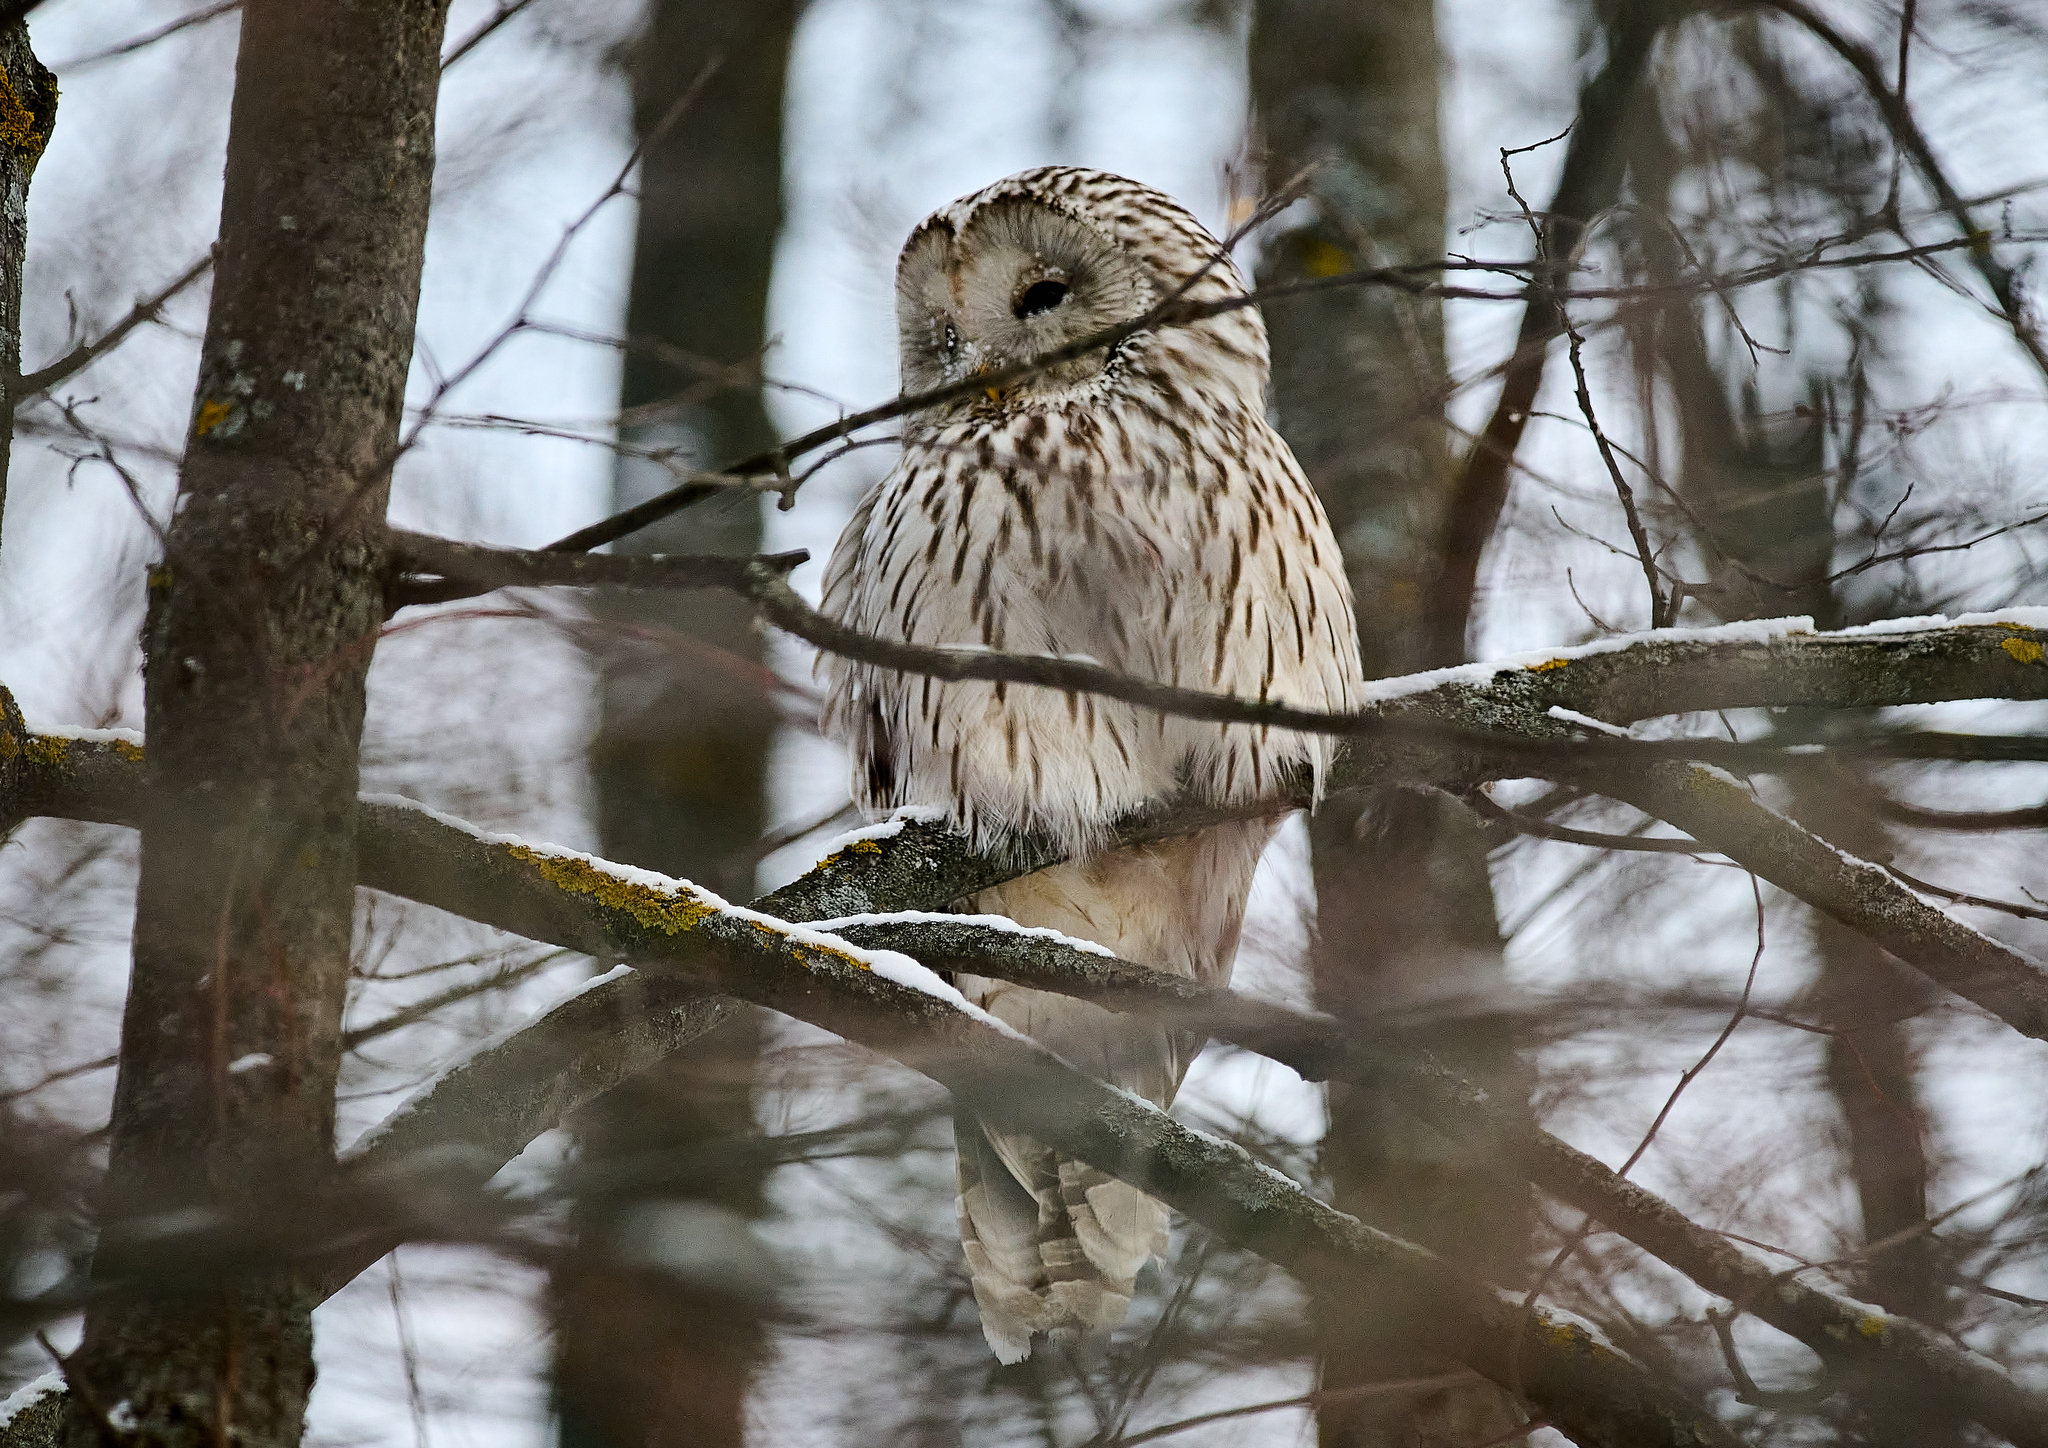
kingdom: Animalia
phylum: Chordata
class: Aves
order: Strigiformes
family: Strigidae
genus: Strix
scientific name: Strix uralensis
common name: Ural owl
